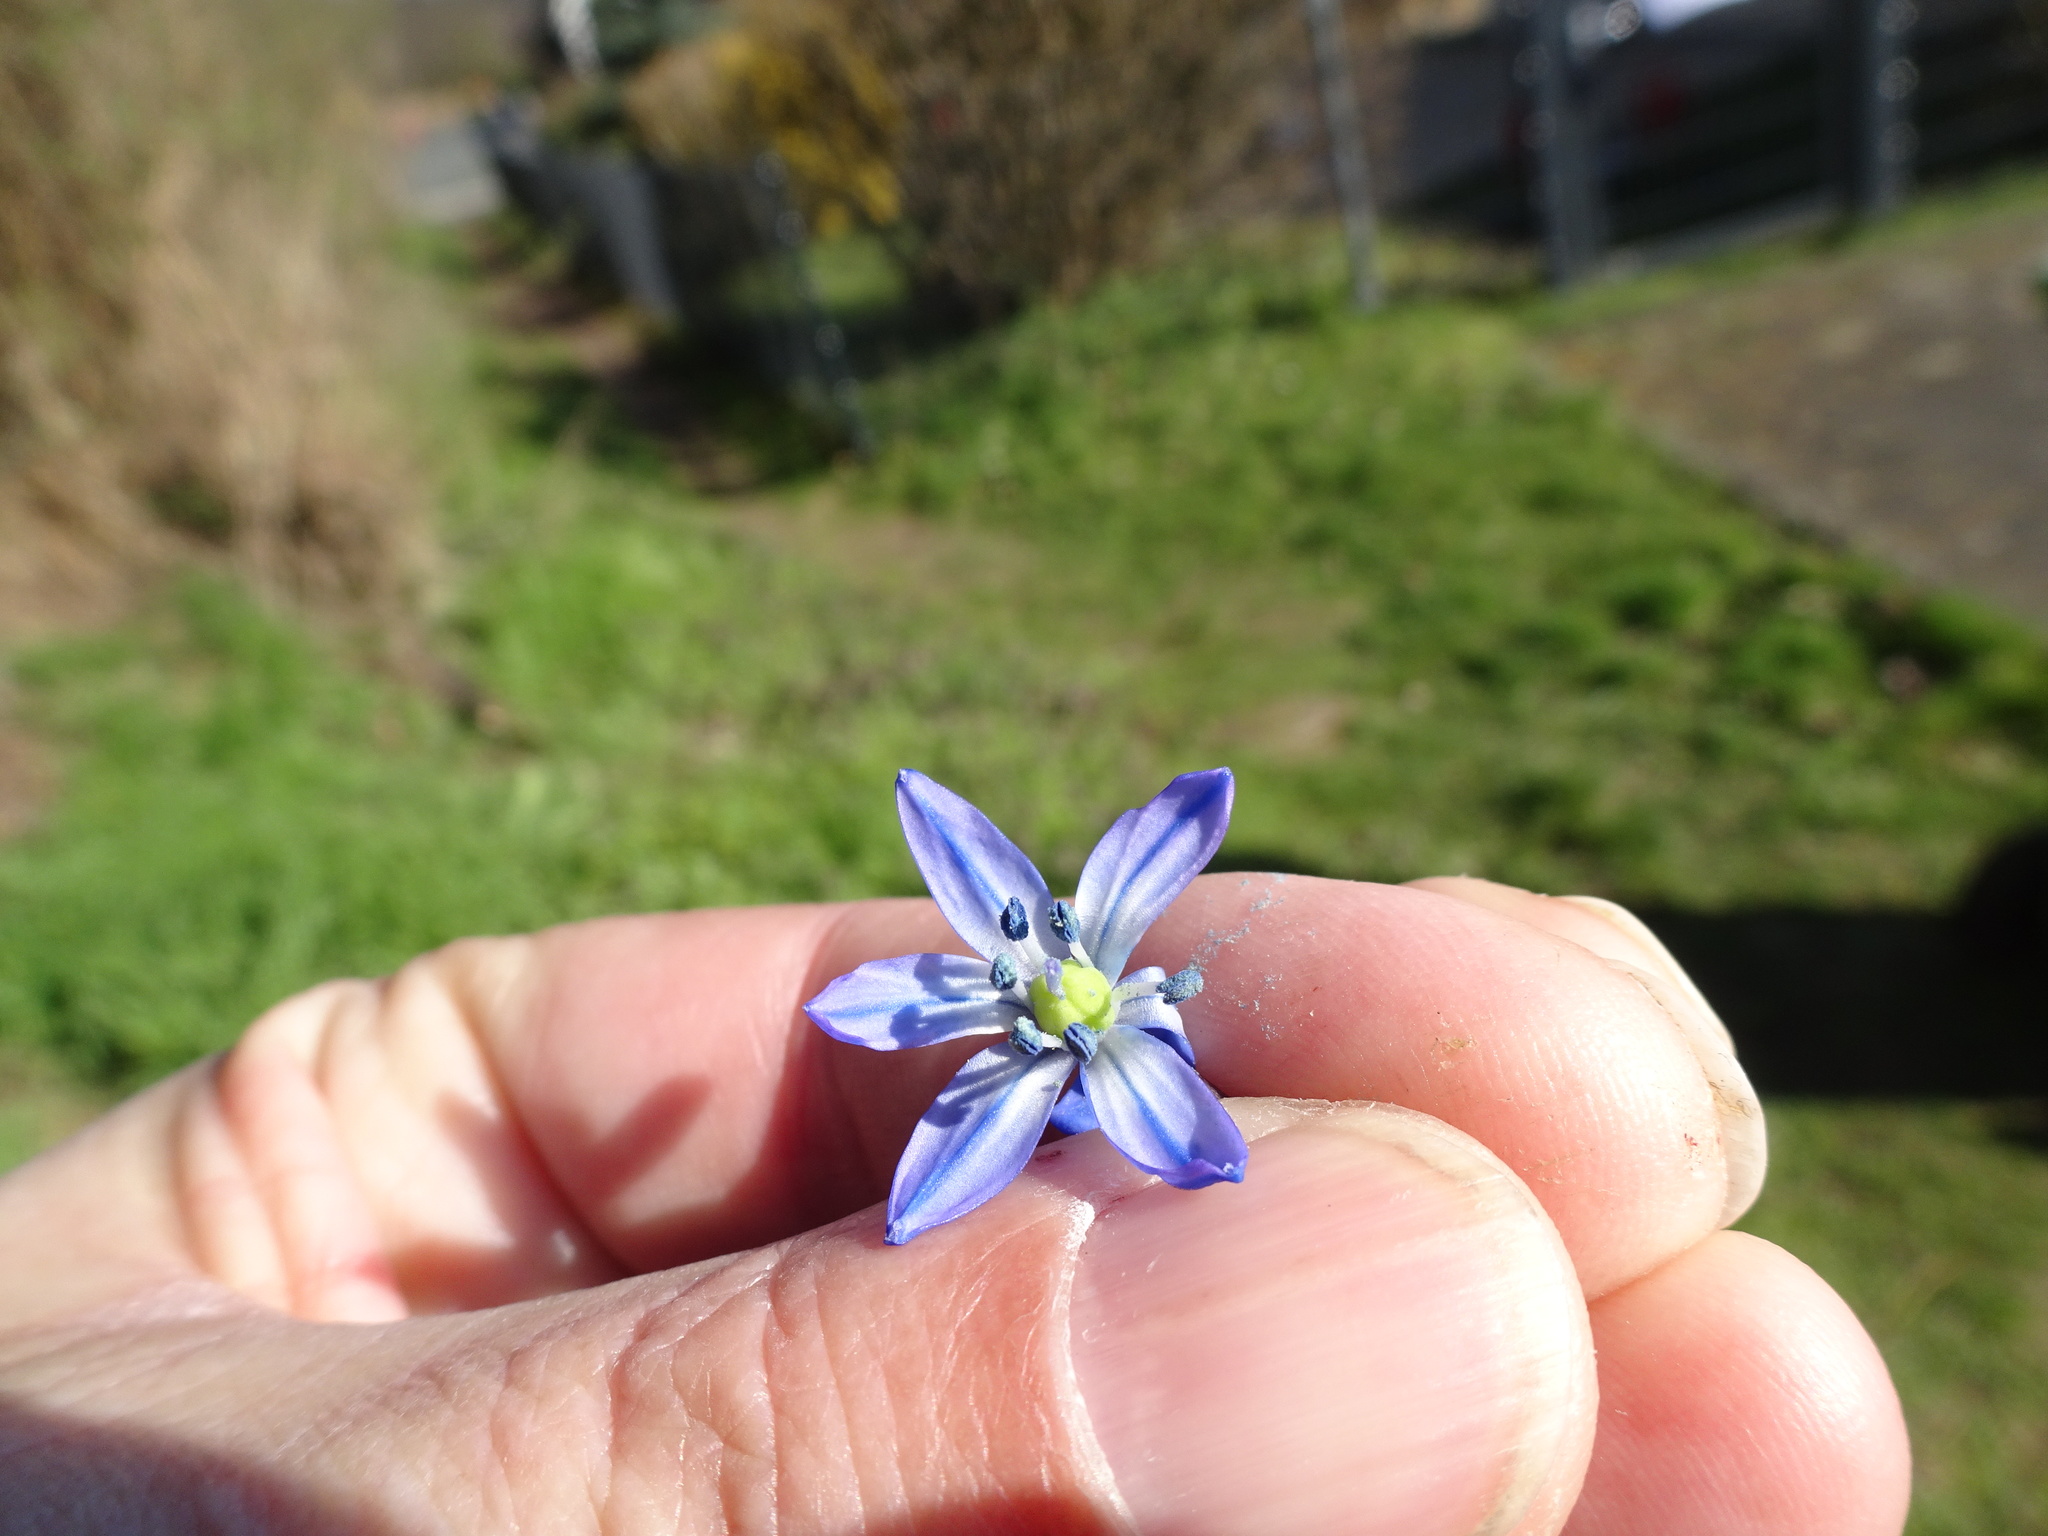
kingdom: Plantae
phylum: Tracheophyta
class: Liliopsida
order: Asparagales
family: Asparagaceae
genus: Scilla
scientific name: Scilla siberica
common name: Siberian squill
